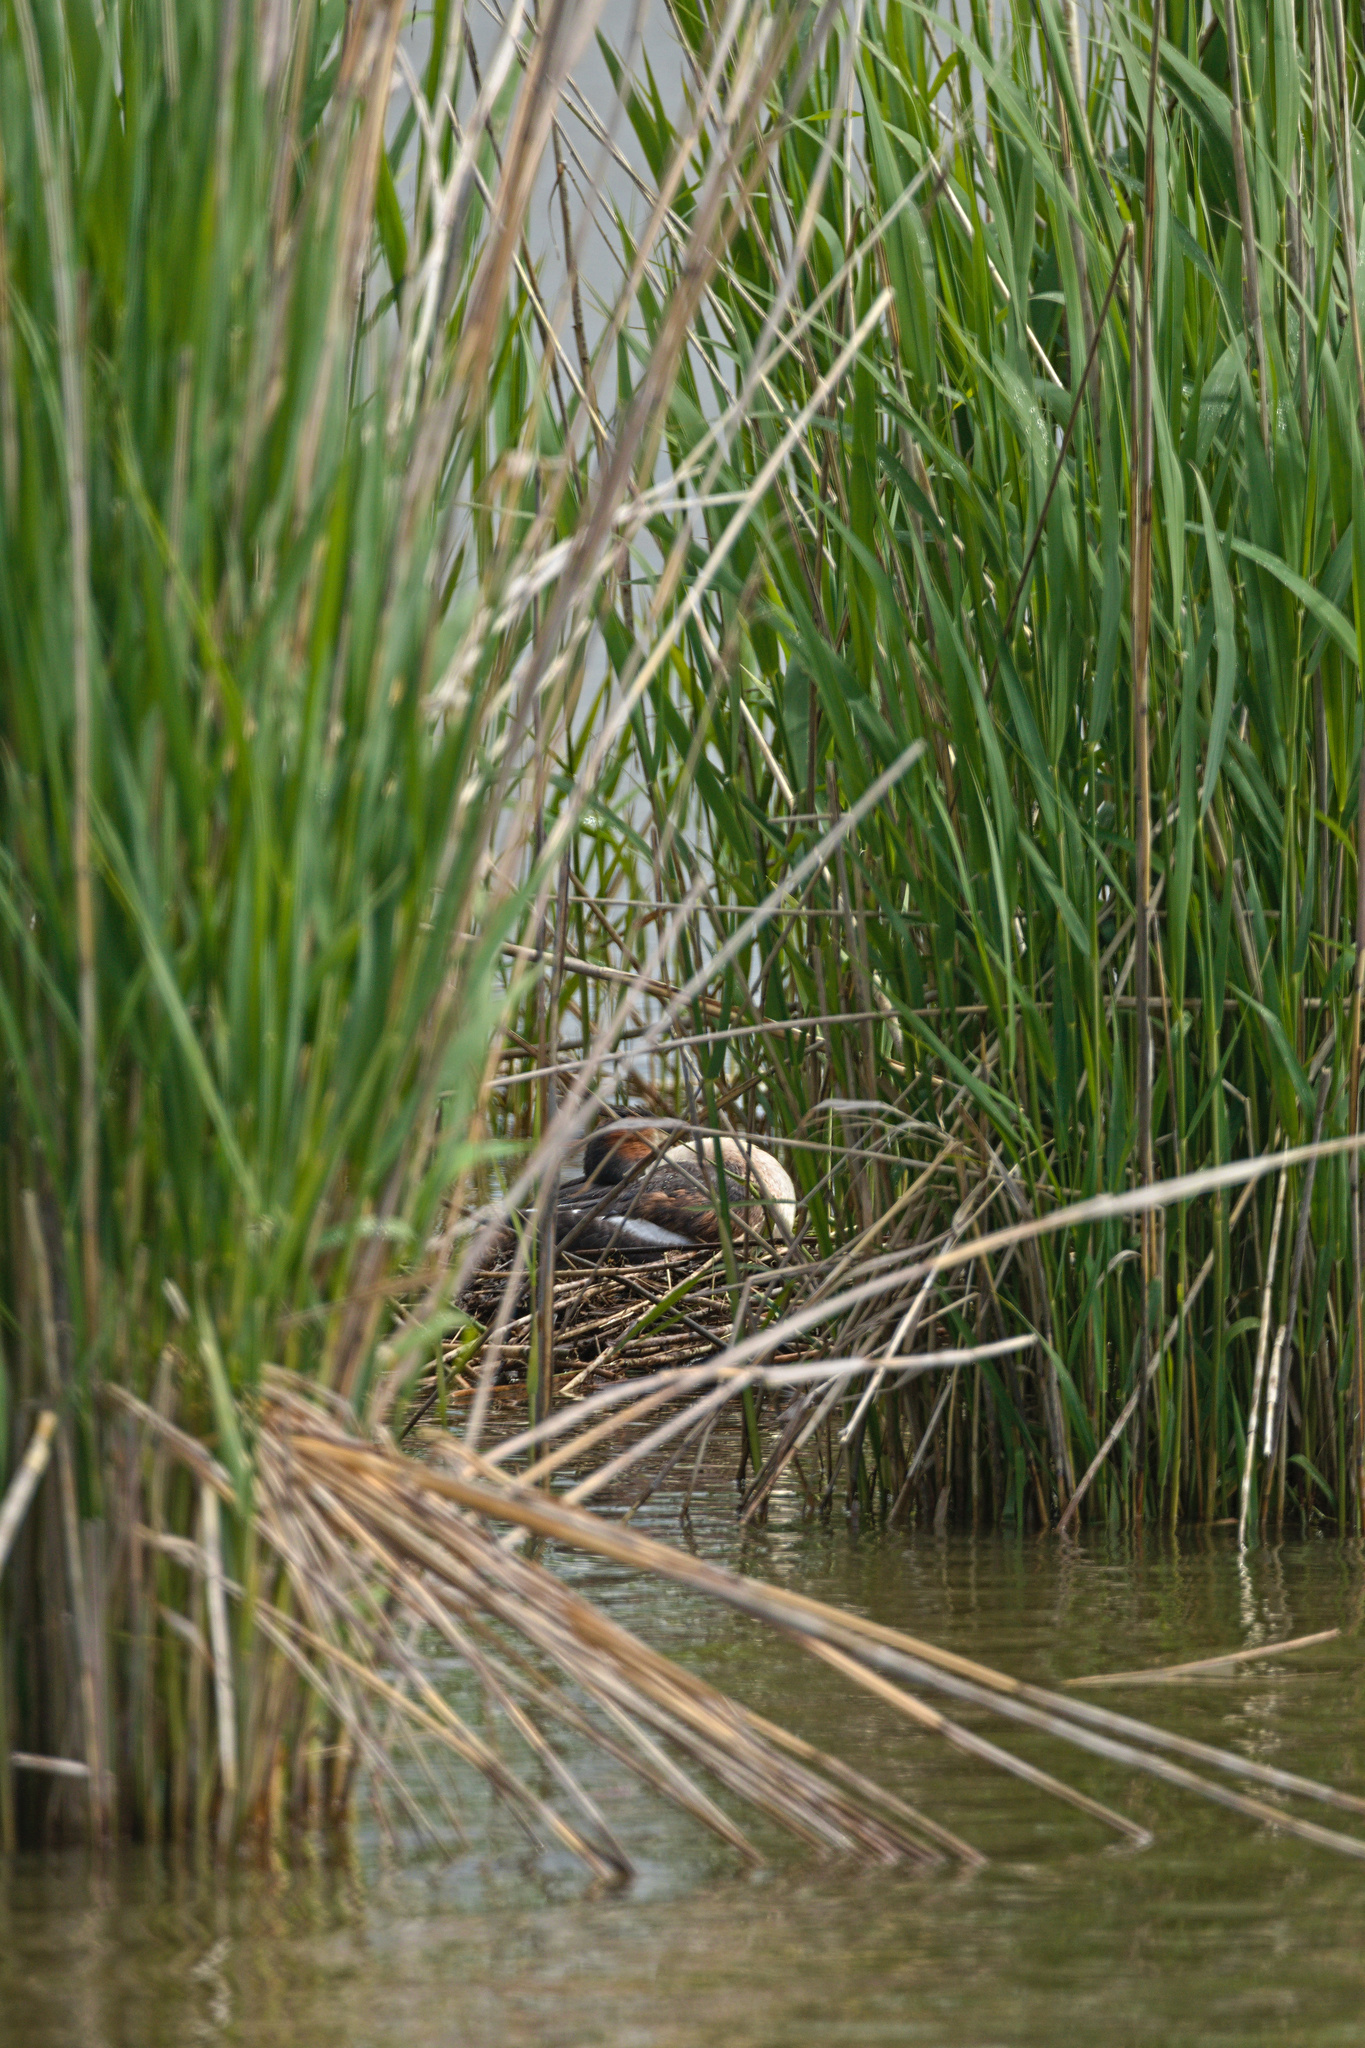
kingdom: Animalia
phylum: Chordata
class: Aves
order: Podicipediformes
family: Podicipedidae
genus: Podiceps
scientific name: Podiceps cristatus
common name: Great crested grebe
